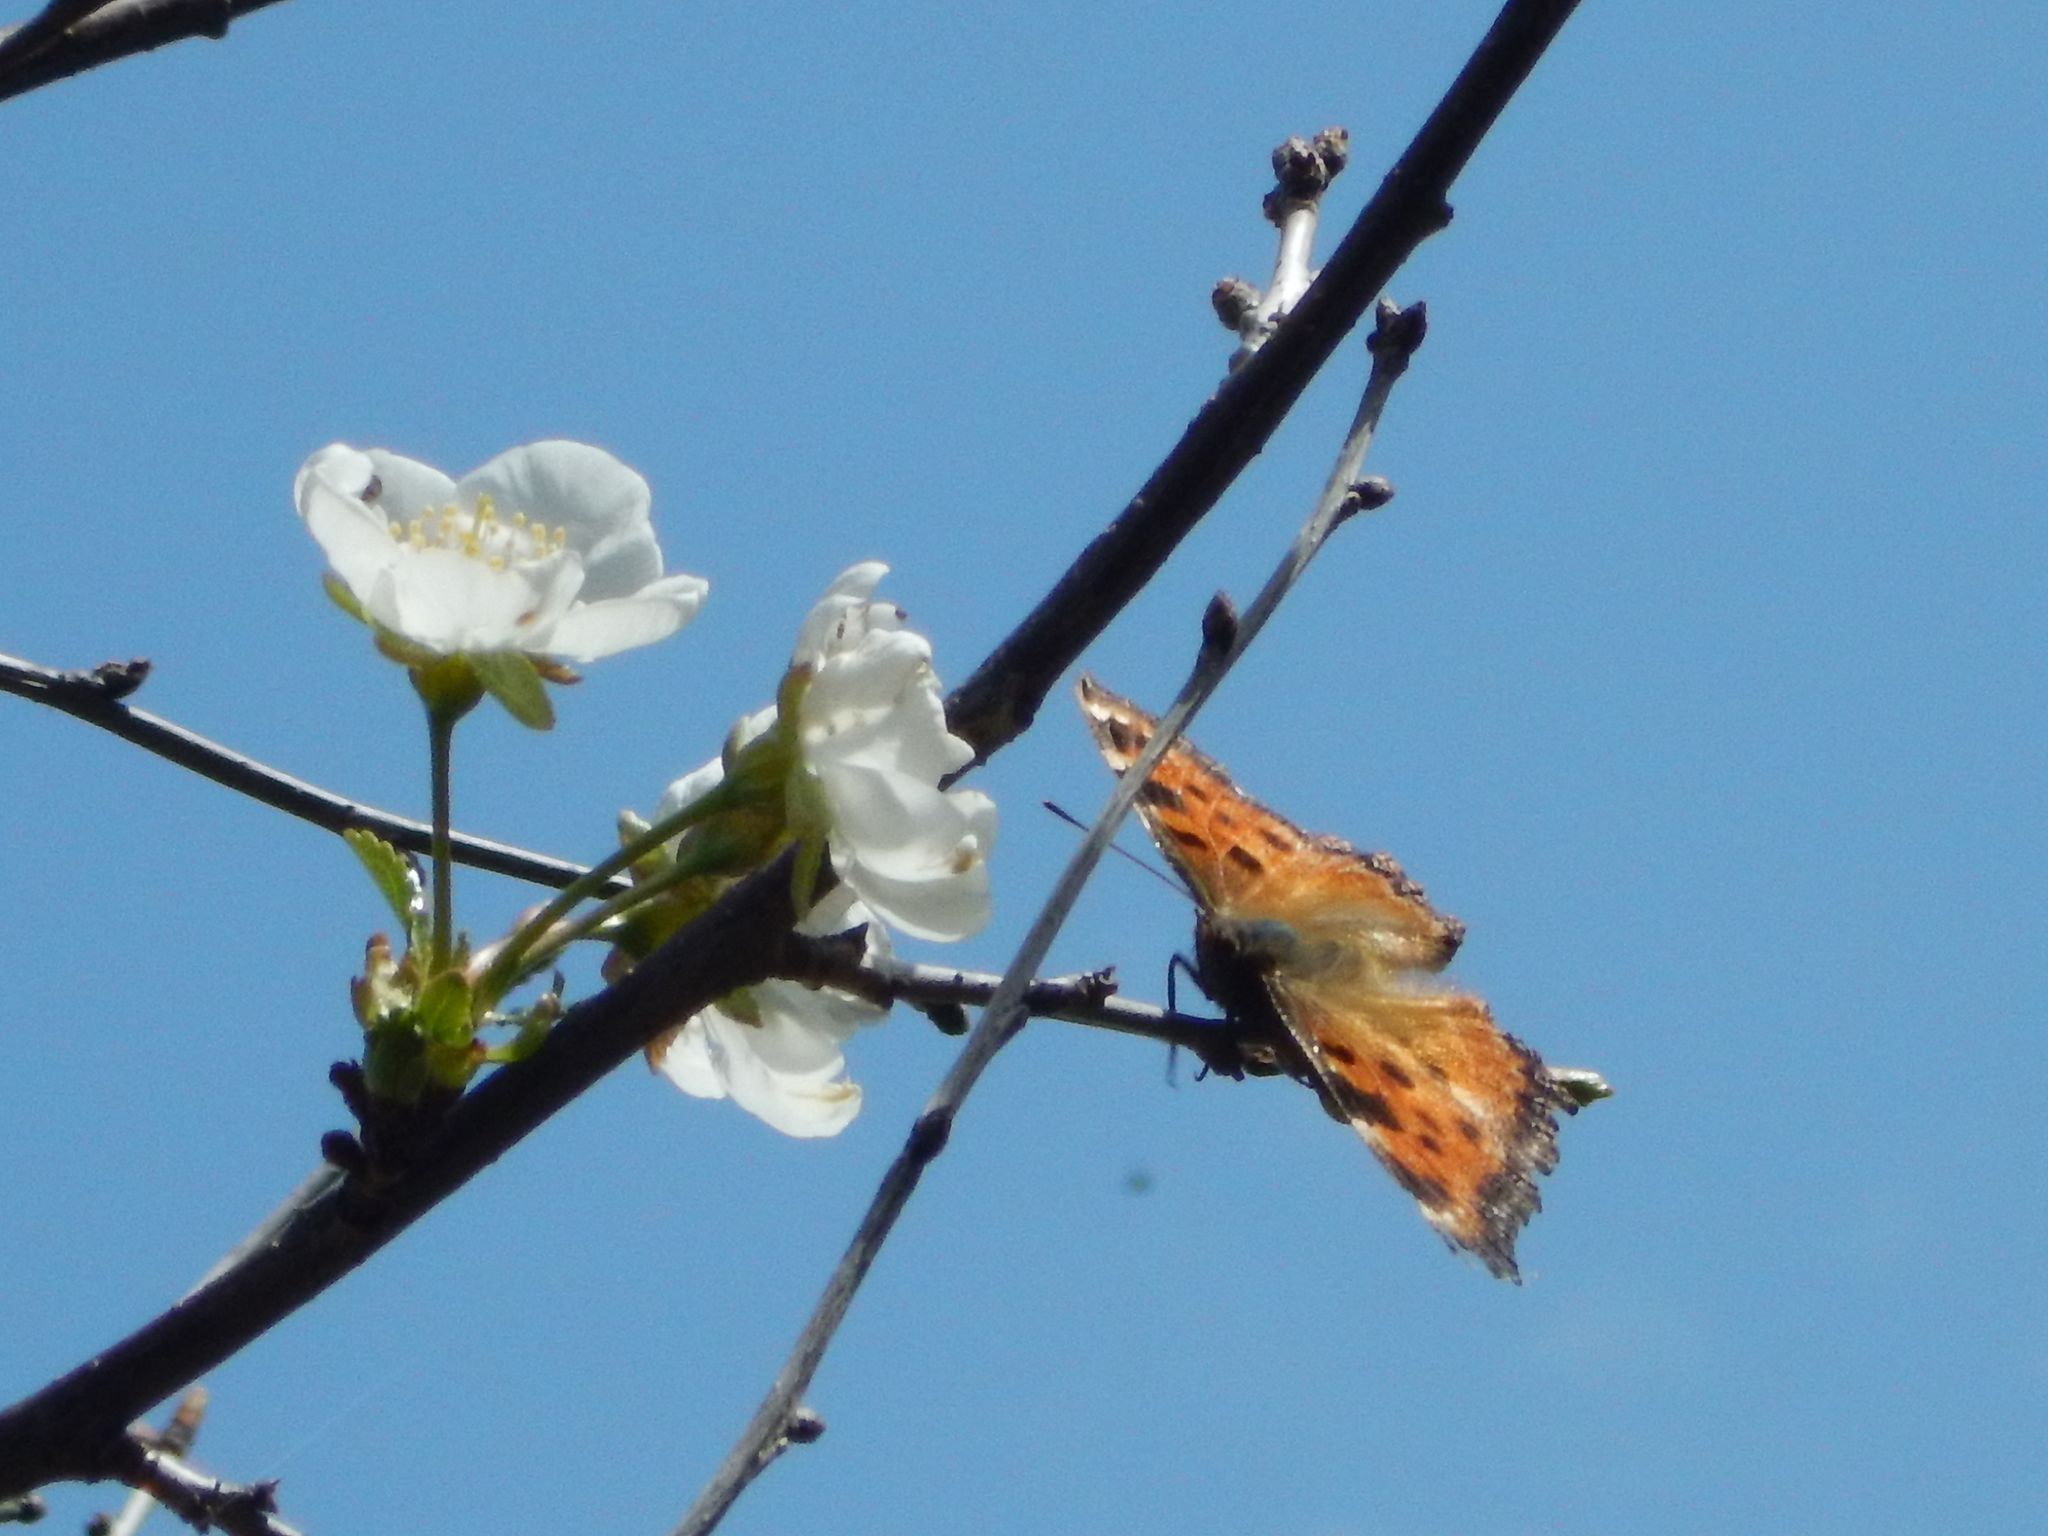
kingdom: Animalia
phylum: Arthropoda
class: Insecta
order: Lepidoptera
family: Nymphalidae
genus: Nymphalis
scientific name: Nymphalis polychloros
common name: Large tortoiseshell
